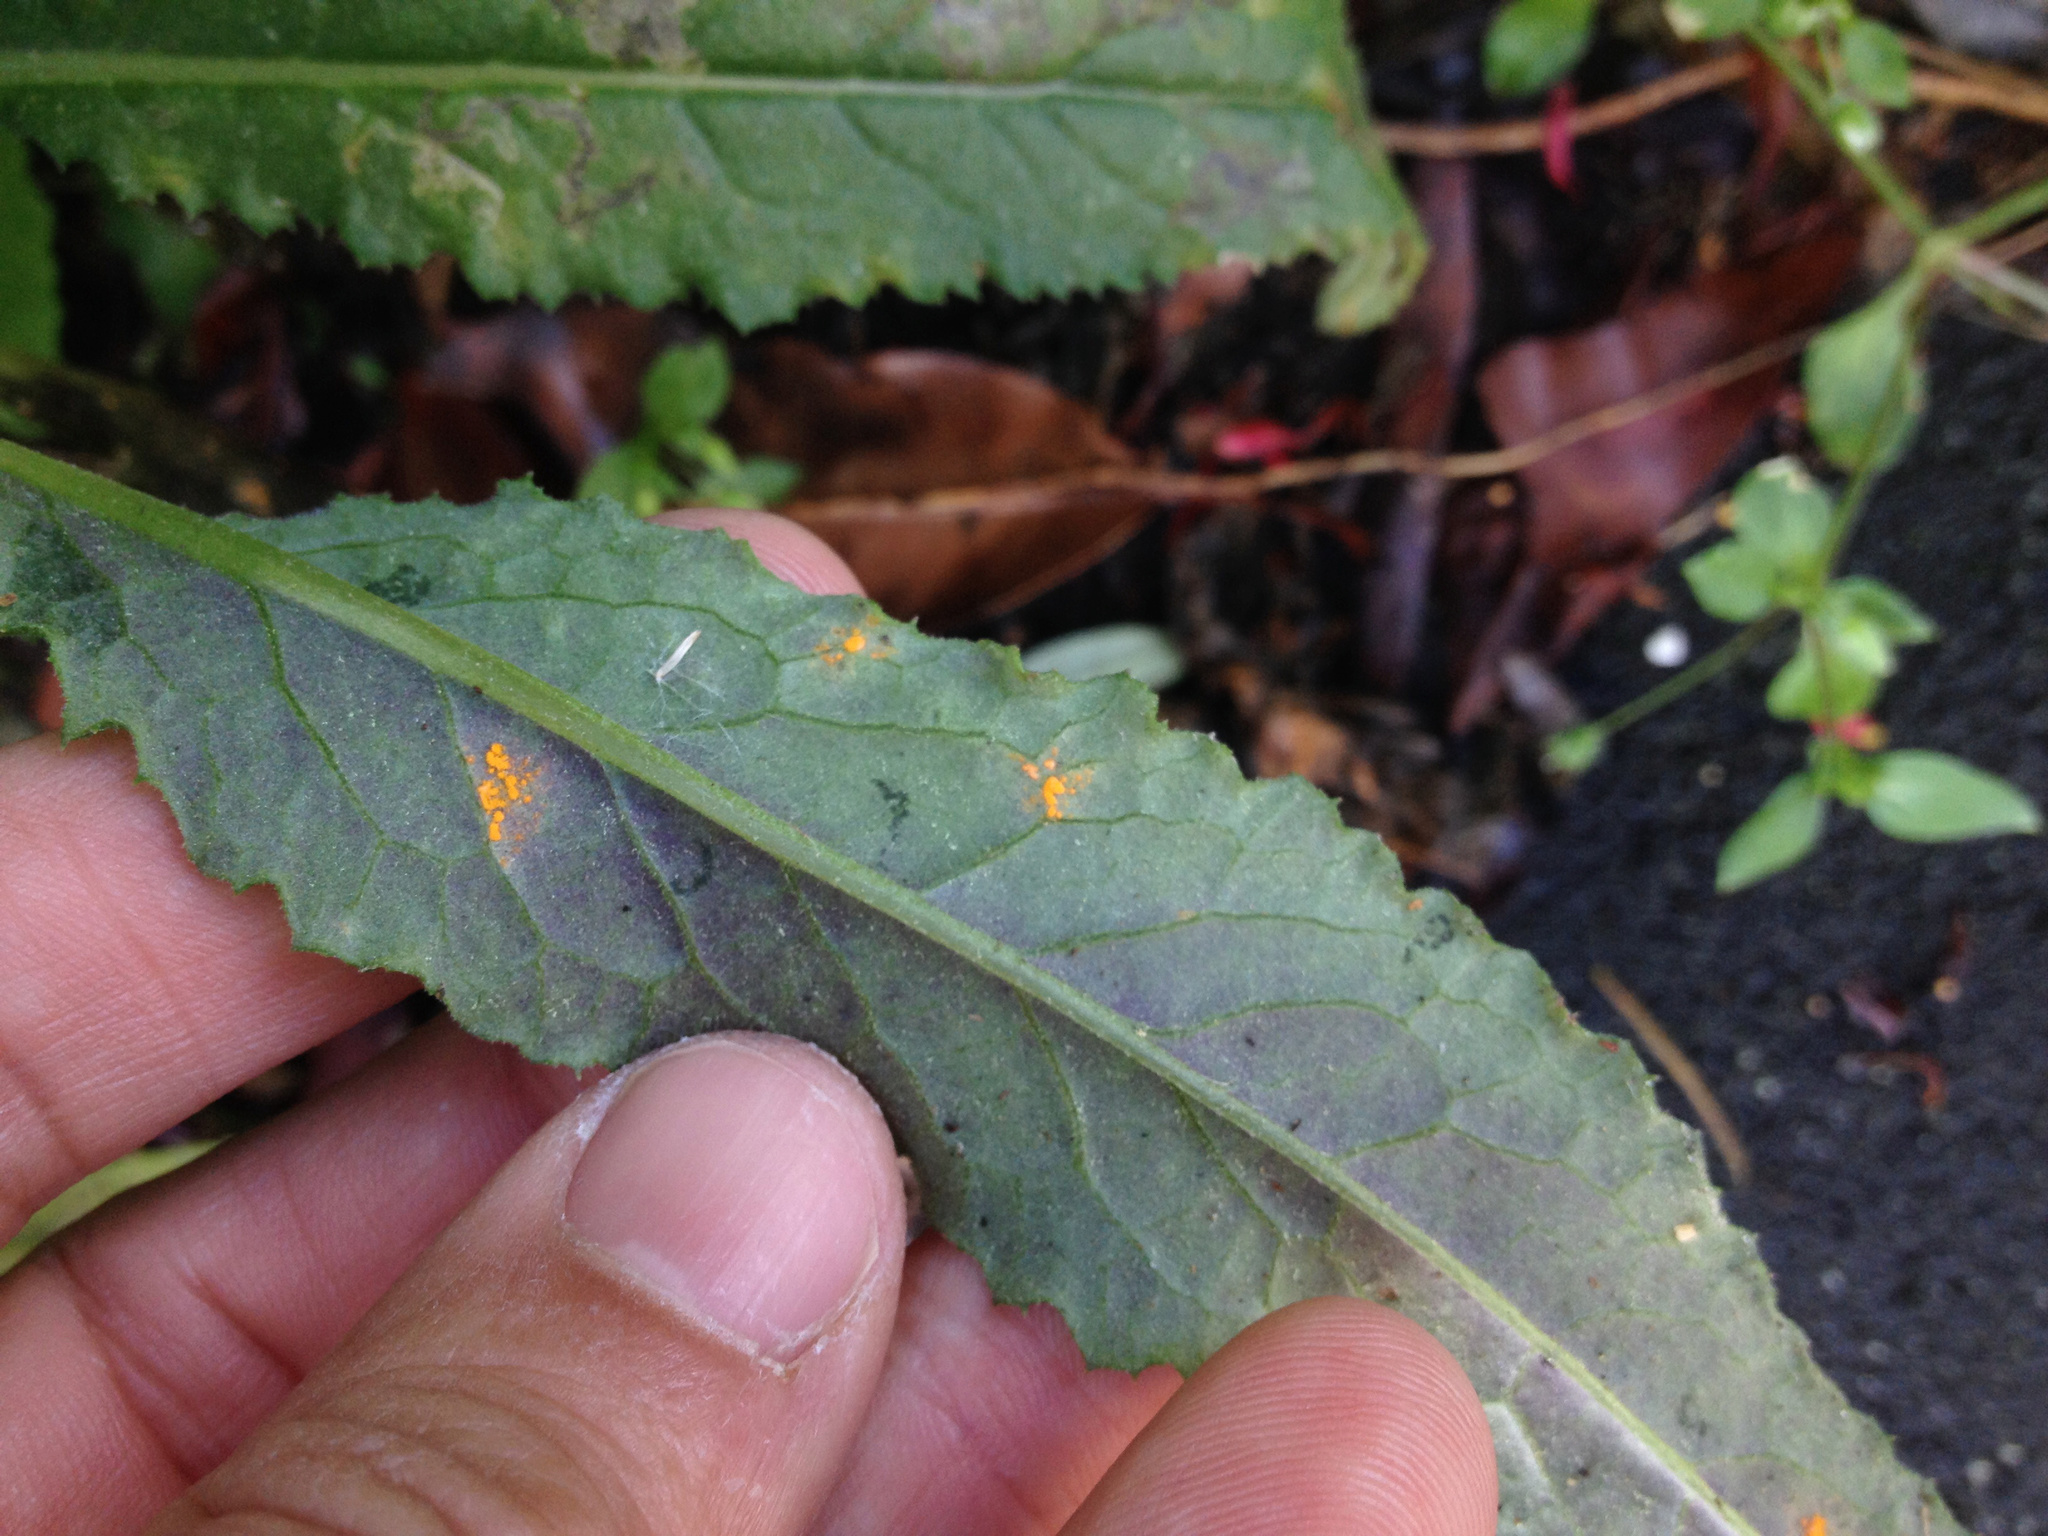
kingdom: Fungi
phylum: Basidiomycota
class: Pucciniomycetes
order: Pucciniales
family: Coleosporiaceae
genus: Coleosporium
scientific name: Coleosporium tussilaginis
